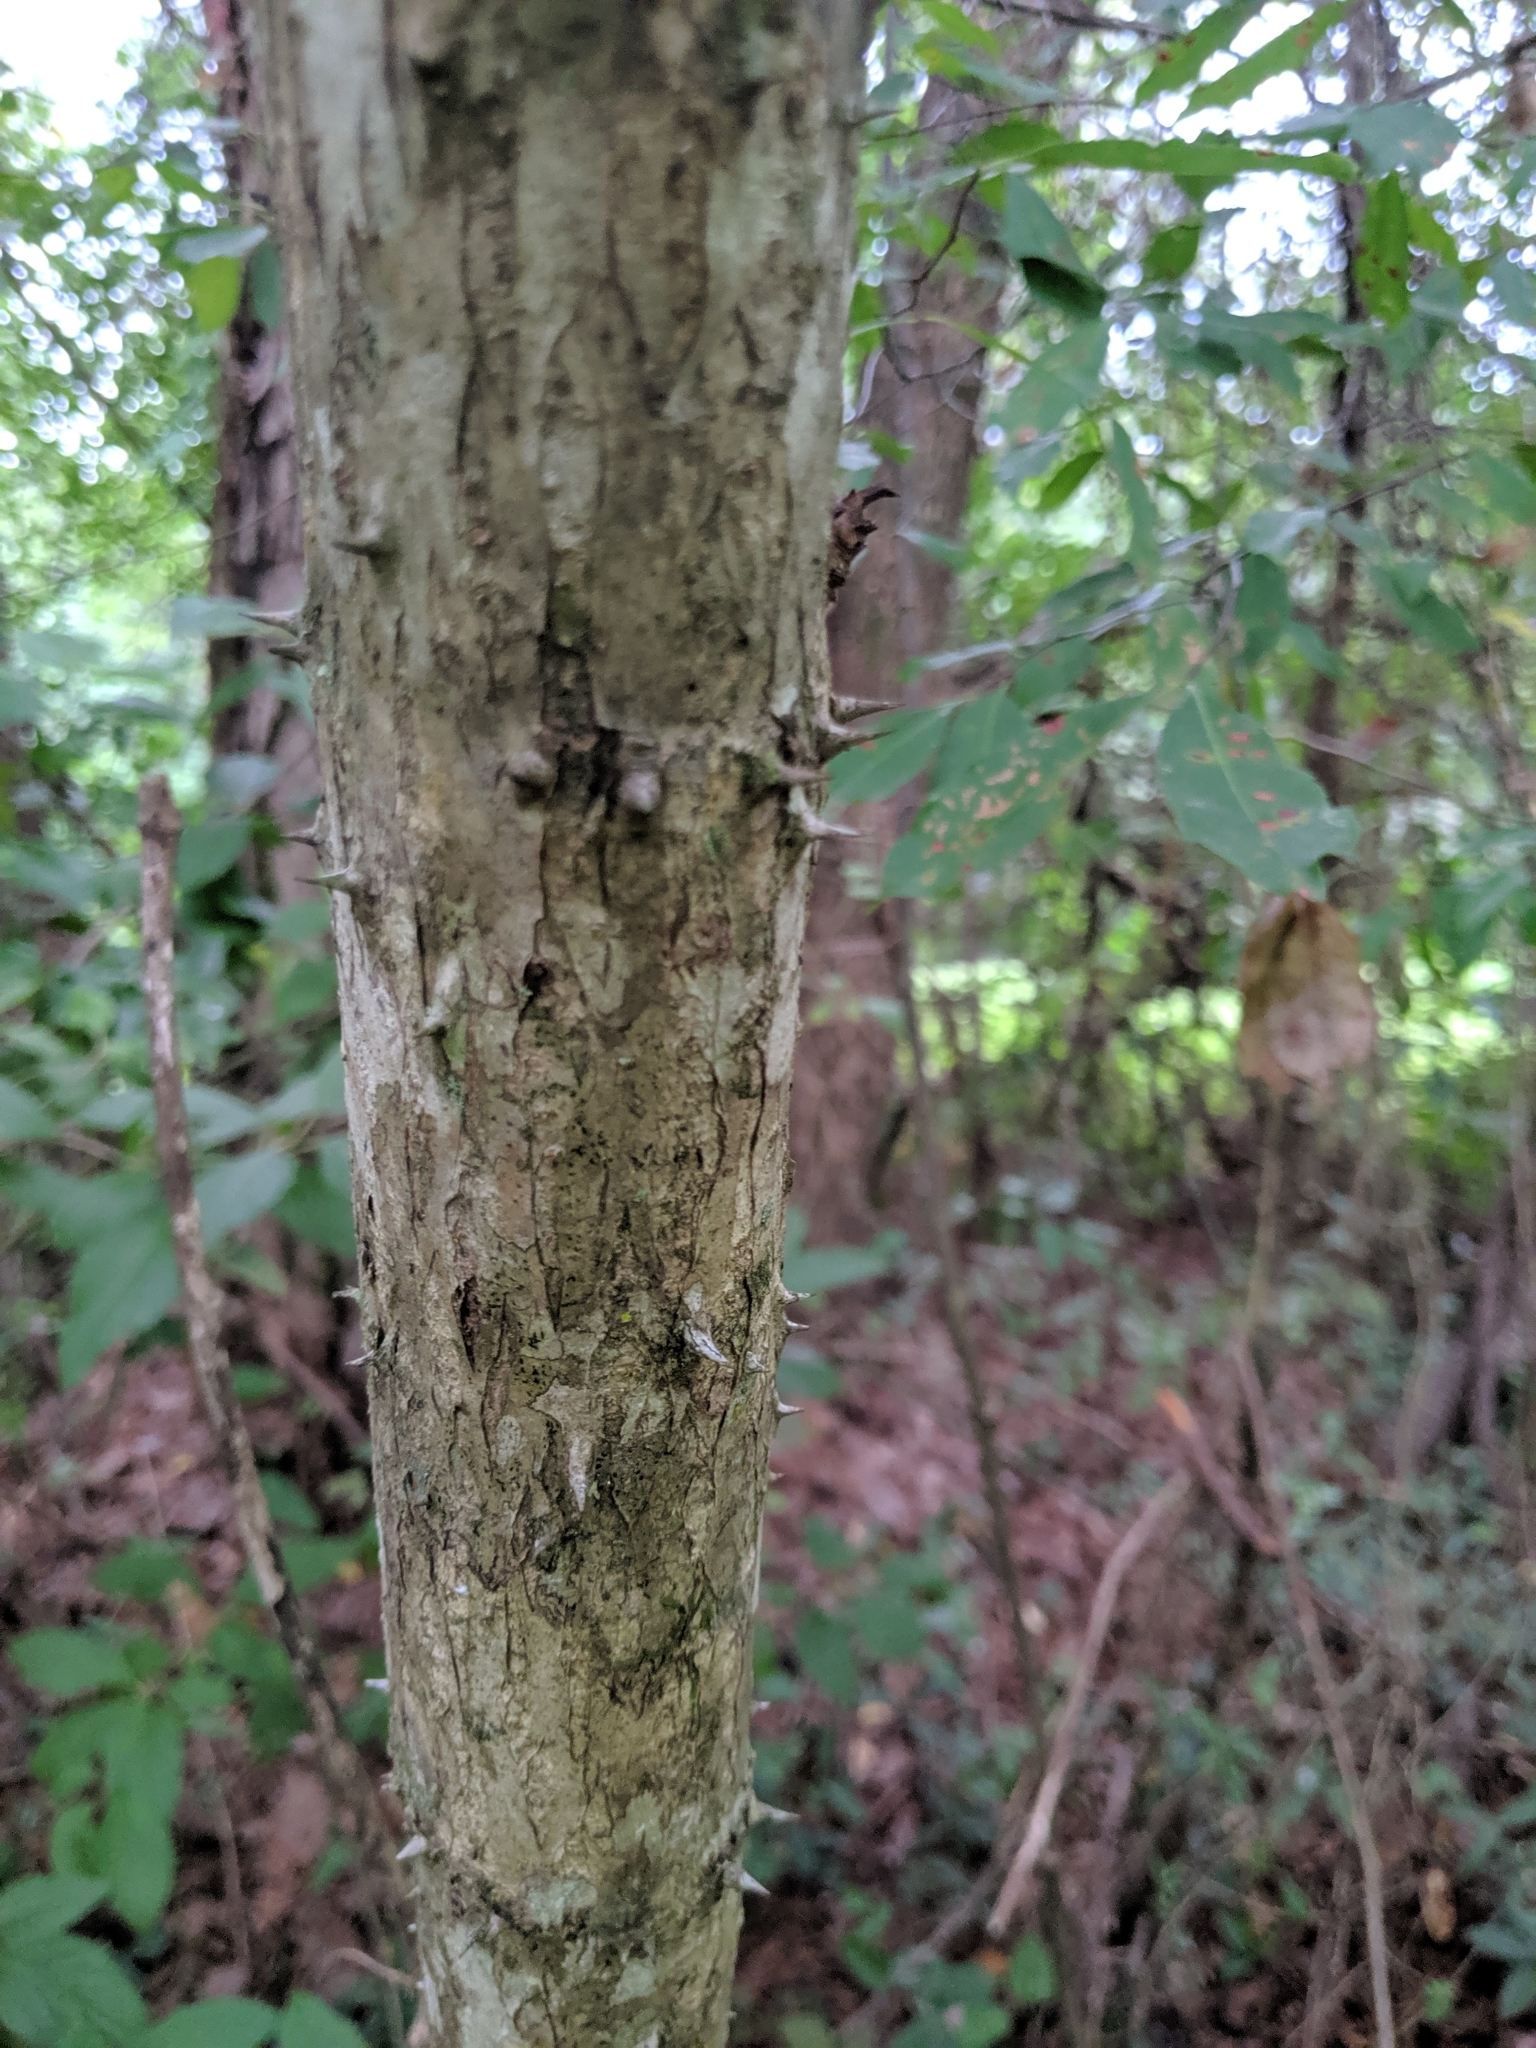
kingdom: Plantae
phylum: Tracheophyta
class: Magnoliopsida
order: Apiales
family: Araliaceae
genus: Aralia
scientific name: Aralia spinosa
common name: Hercules'-club
